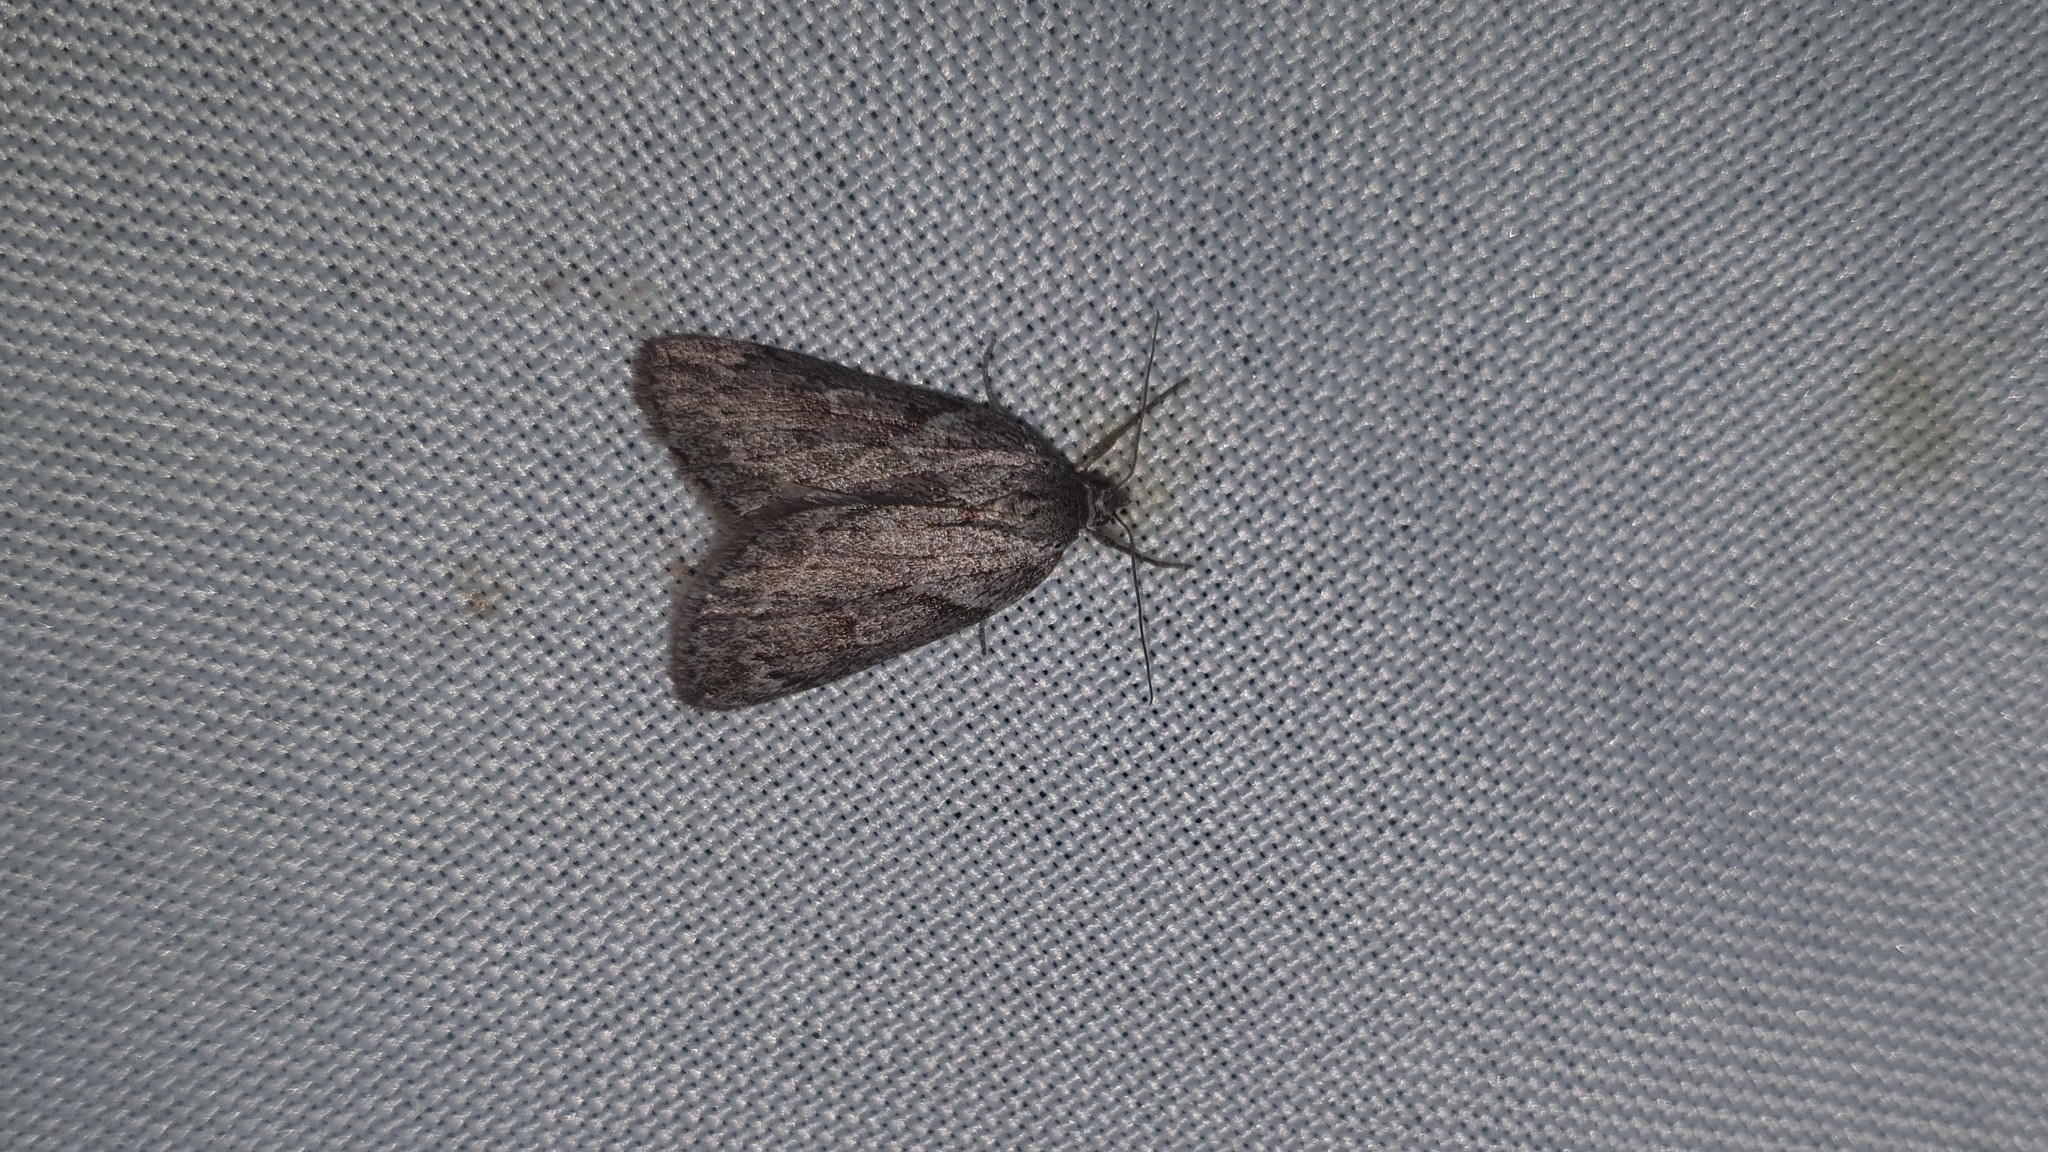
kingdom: Animalia
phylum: Arthropoda
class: Insecta
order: Lepidoptera
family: Geometridae
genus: Pachycnemia
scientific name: Pachycnemia hippocastanaria
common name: Horse chestnut
